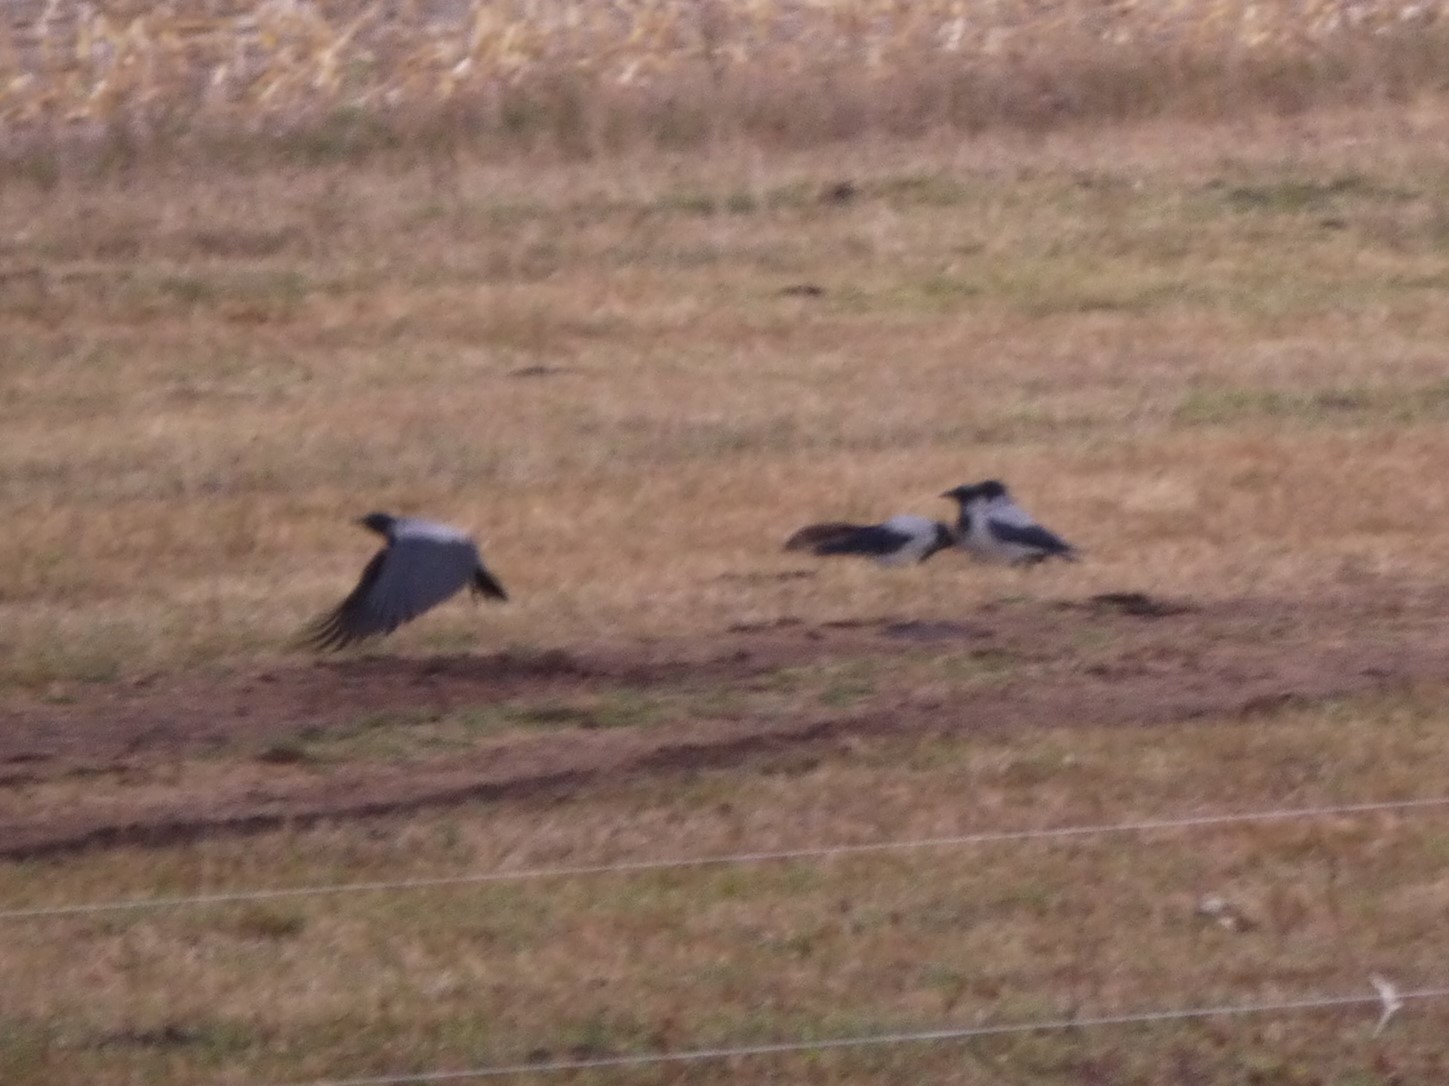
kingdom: Animalia
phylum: Chordata
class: Aves
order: Passeriformes
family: Corvidae
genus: Corvus
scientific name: Corvus cornix
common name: Hooded crow
